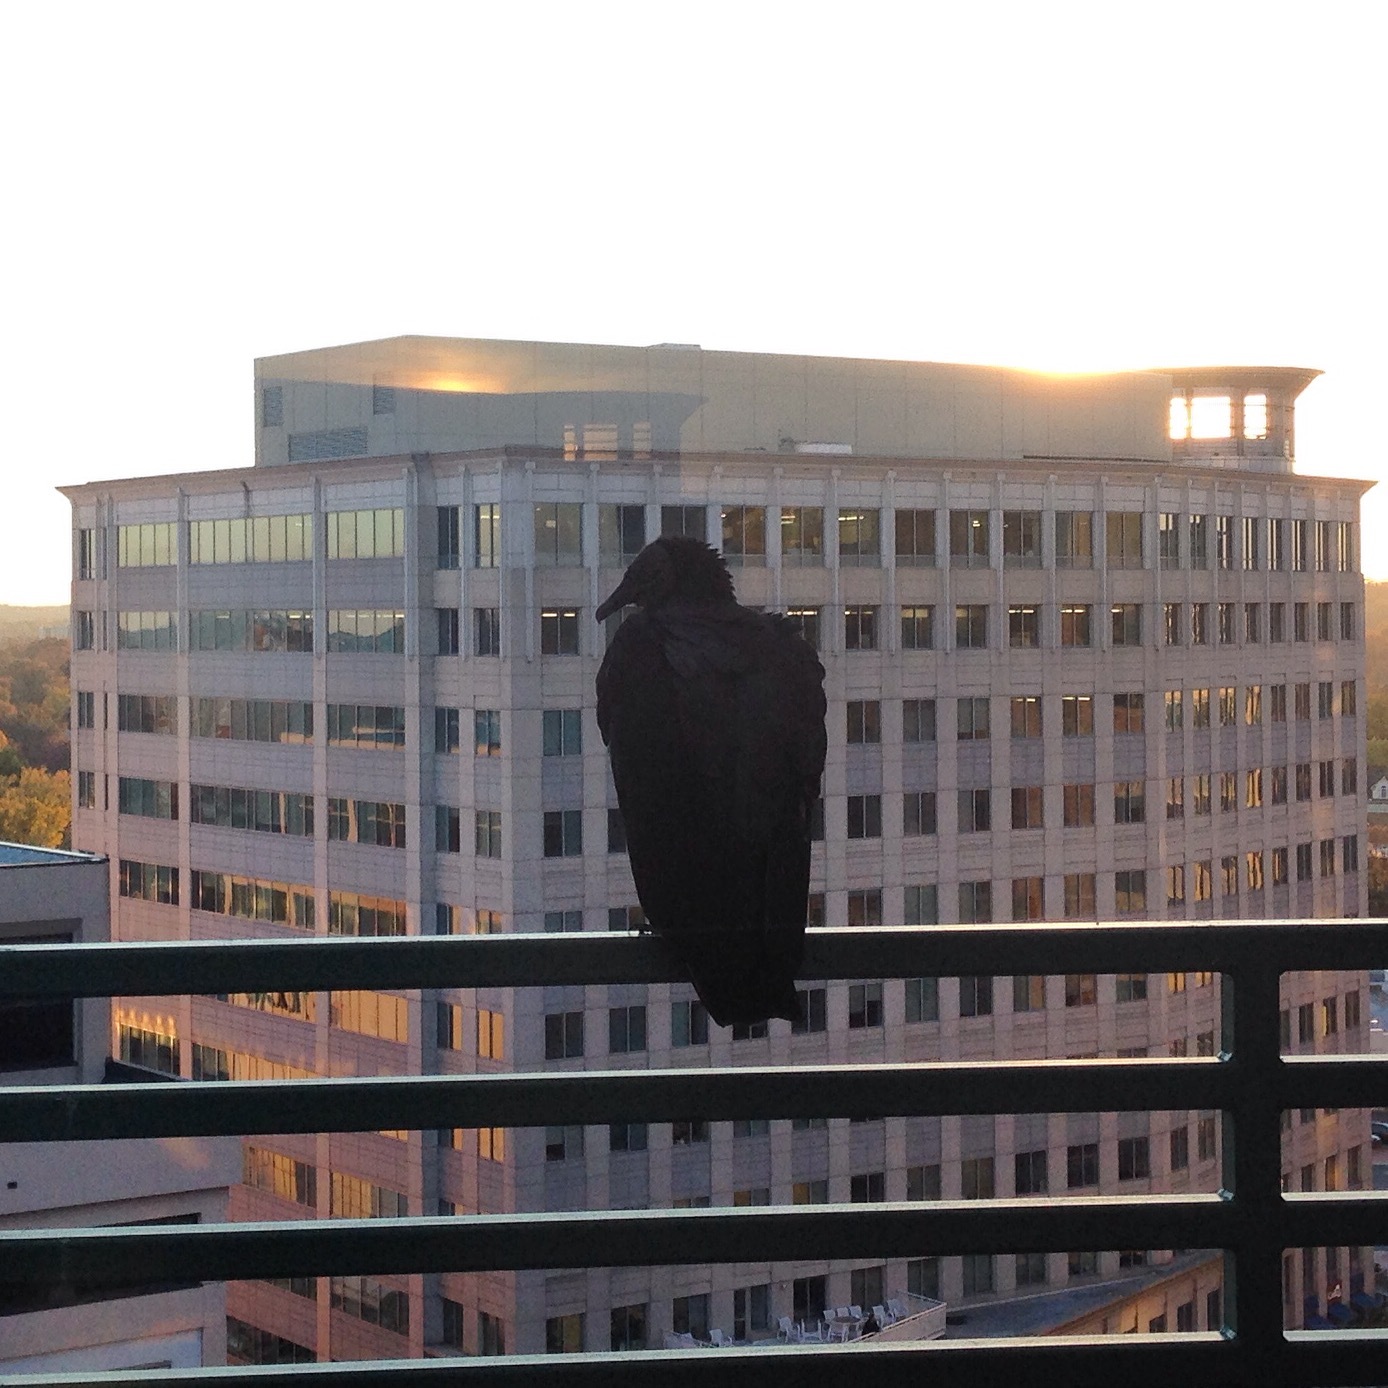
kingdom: Animalia
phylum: Chordata
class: Aves
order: Accipitriformes
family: Cathartidae
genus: Coragyps
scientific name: Coragyps atratus
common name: Black vulture
